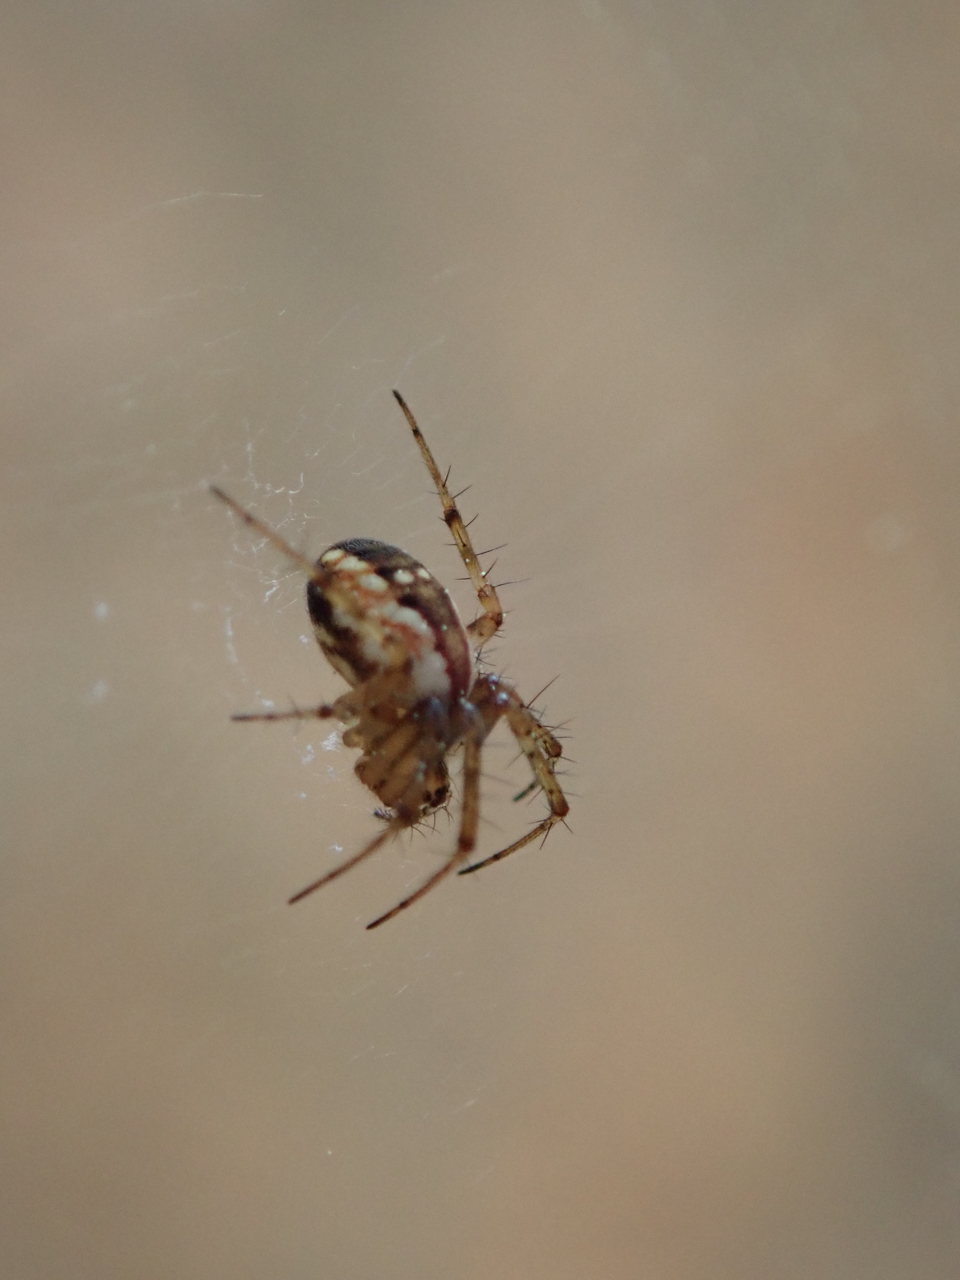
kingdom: Animalia
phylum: Arthropoda
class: Arachnida
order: Araneae
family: Araneidae
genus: Mangora
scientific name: Mangora placida
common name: Tuft-legged orbweaver
